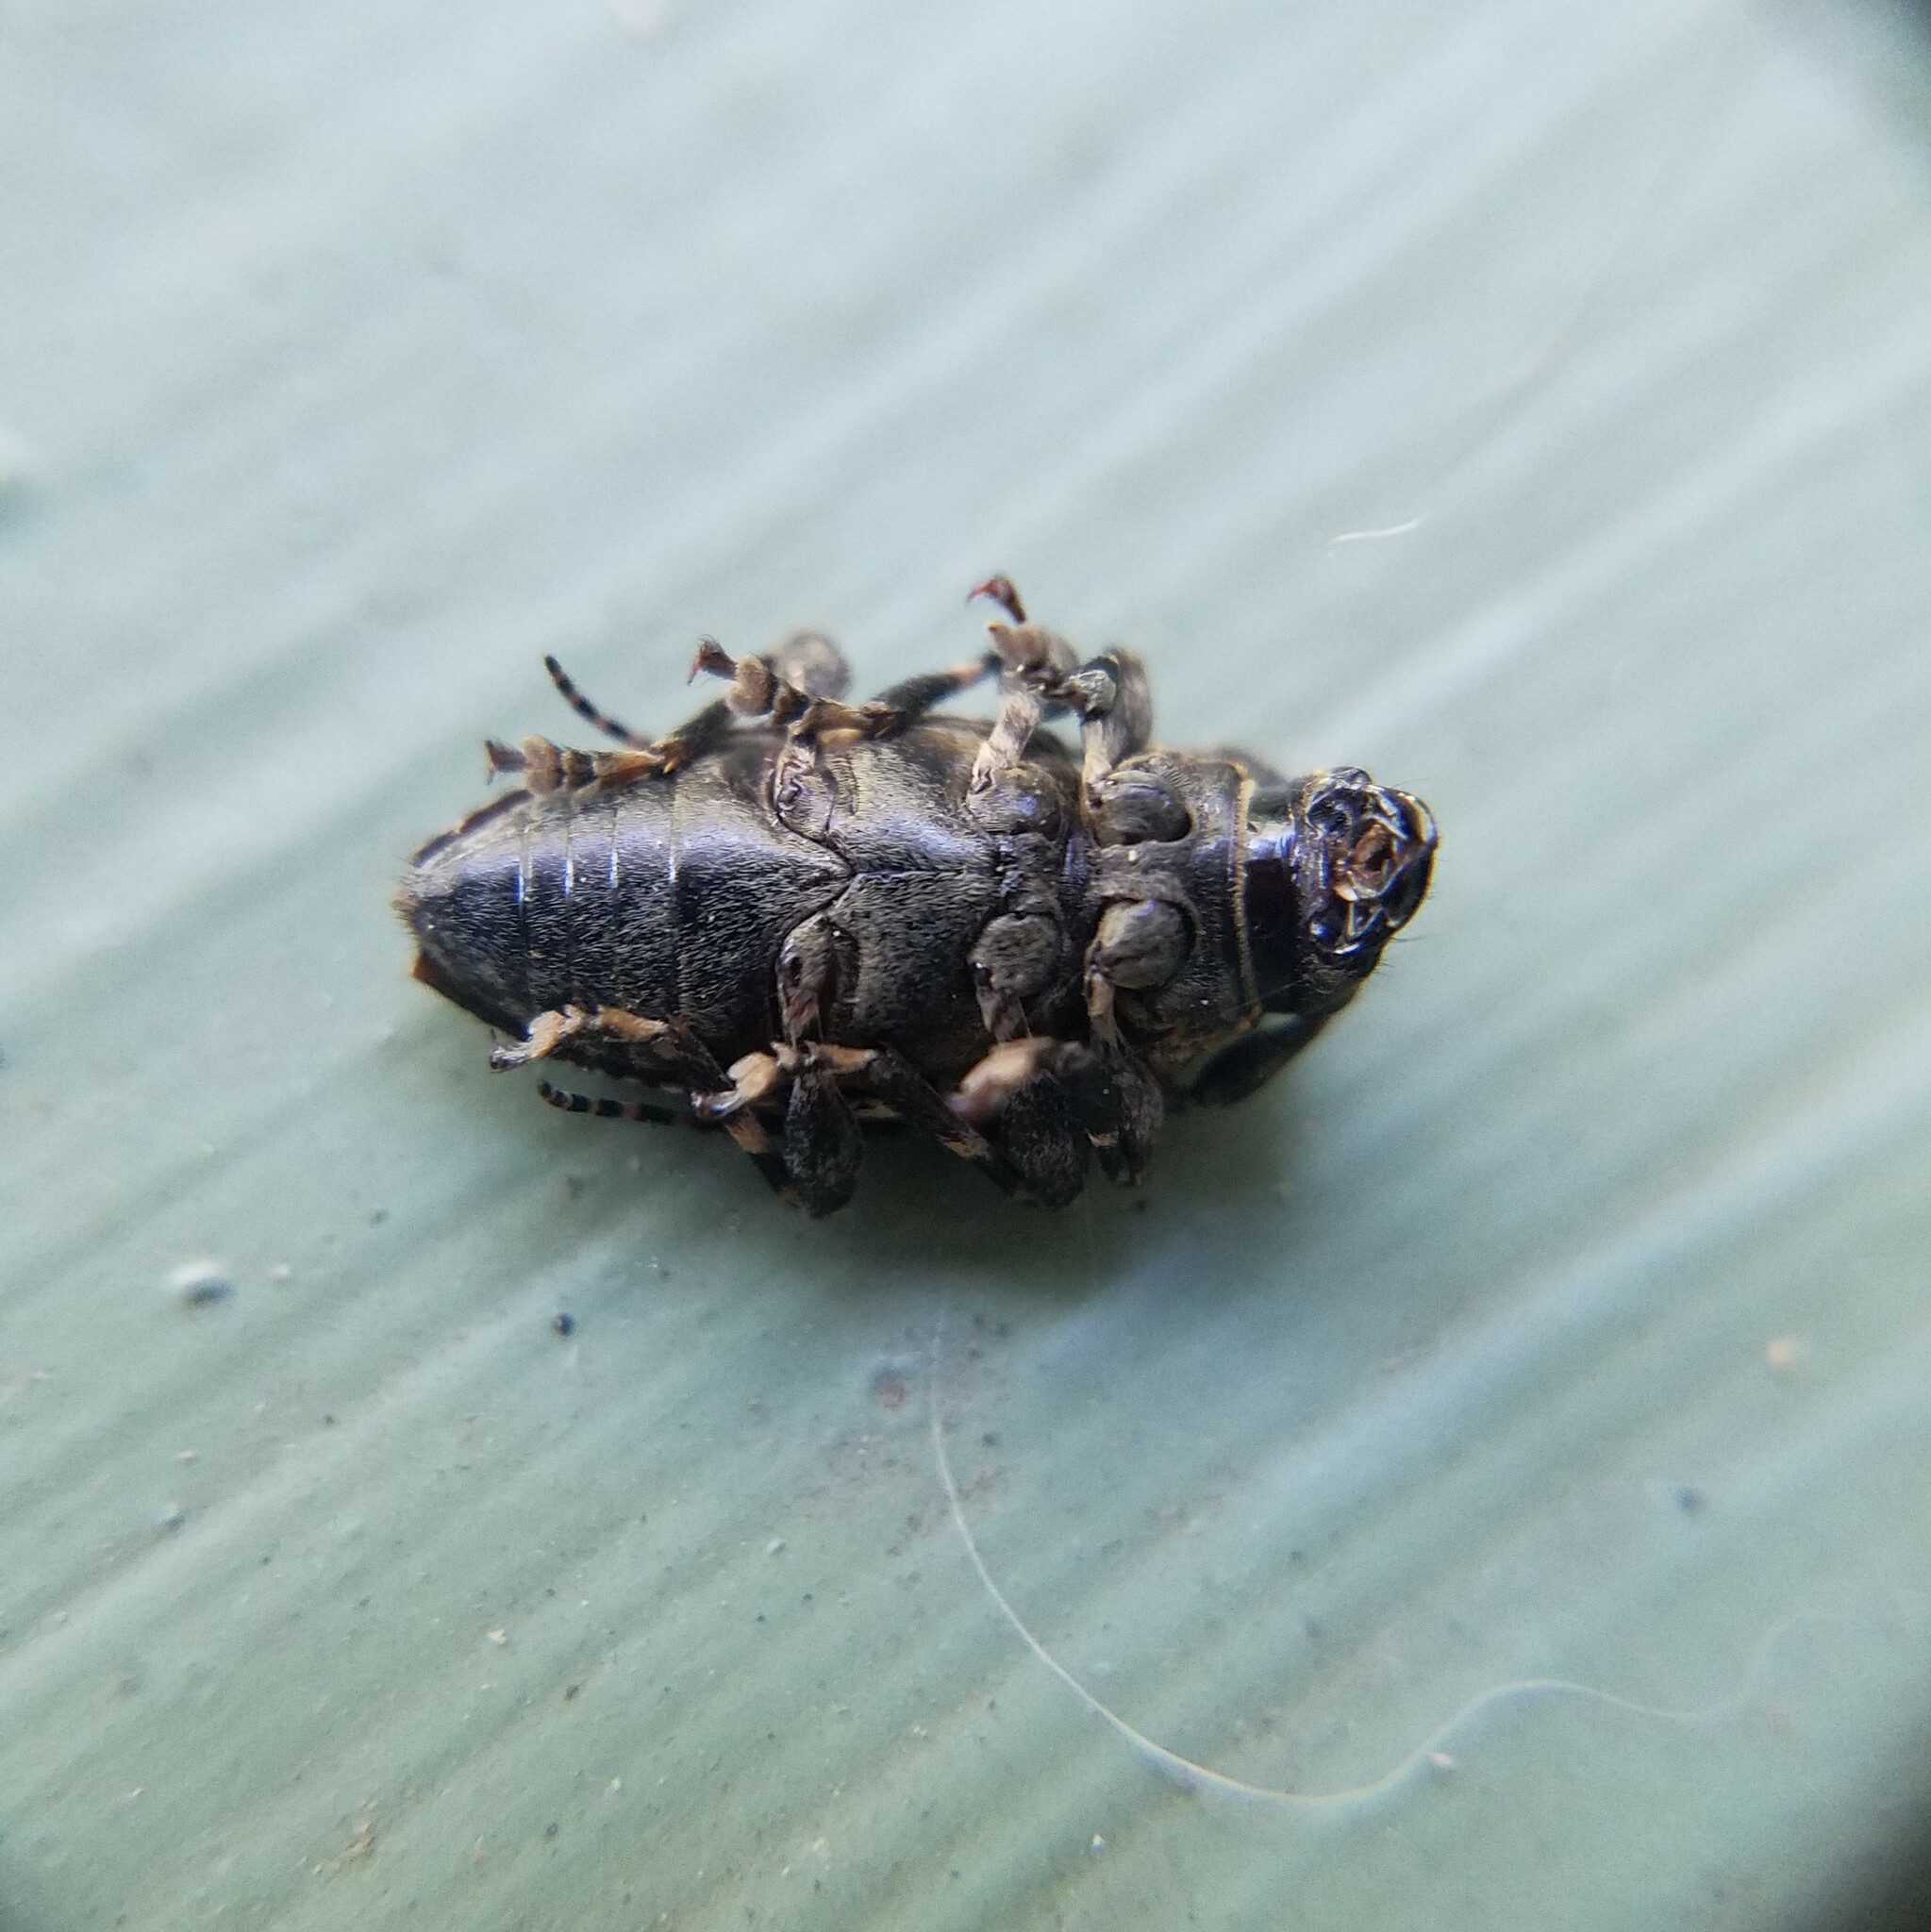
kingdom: Animalia
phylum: Arthropoda
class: Insecta
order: Coleoptera
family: Cerambycidae
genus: Acanthoderes
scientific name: Acanthoderes quadrigibba
